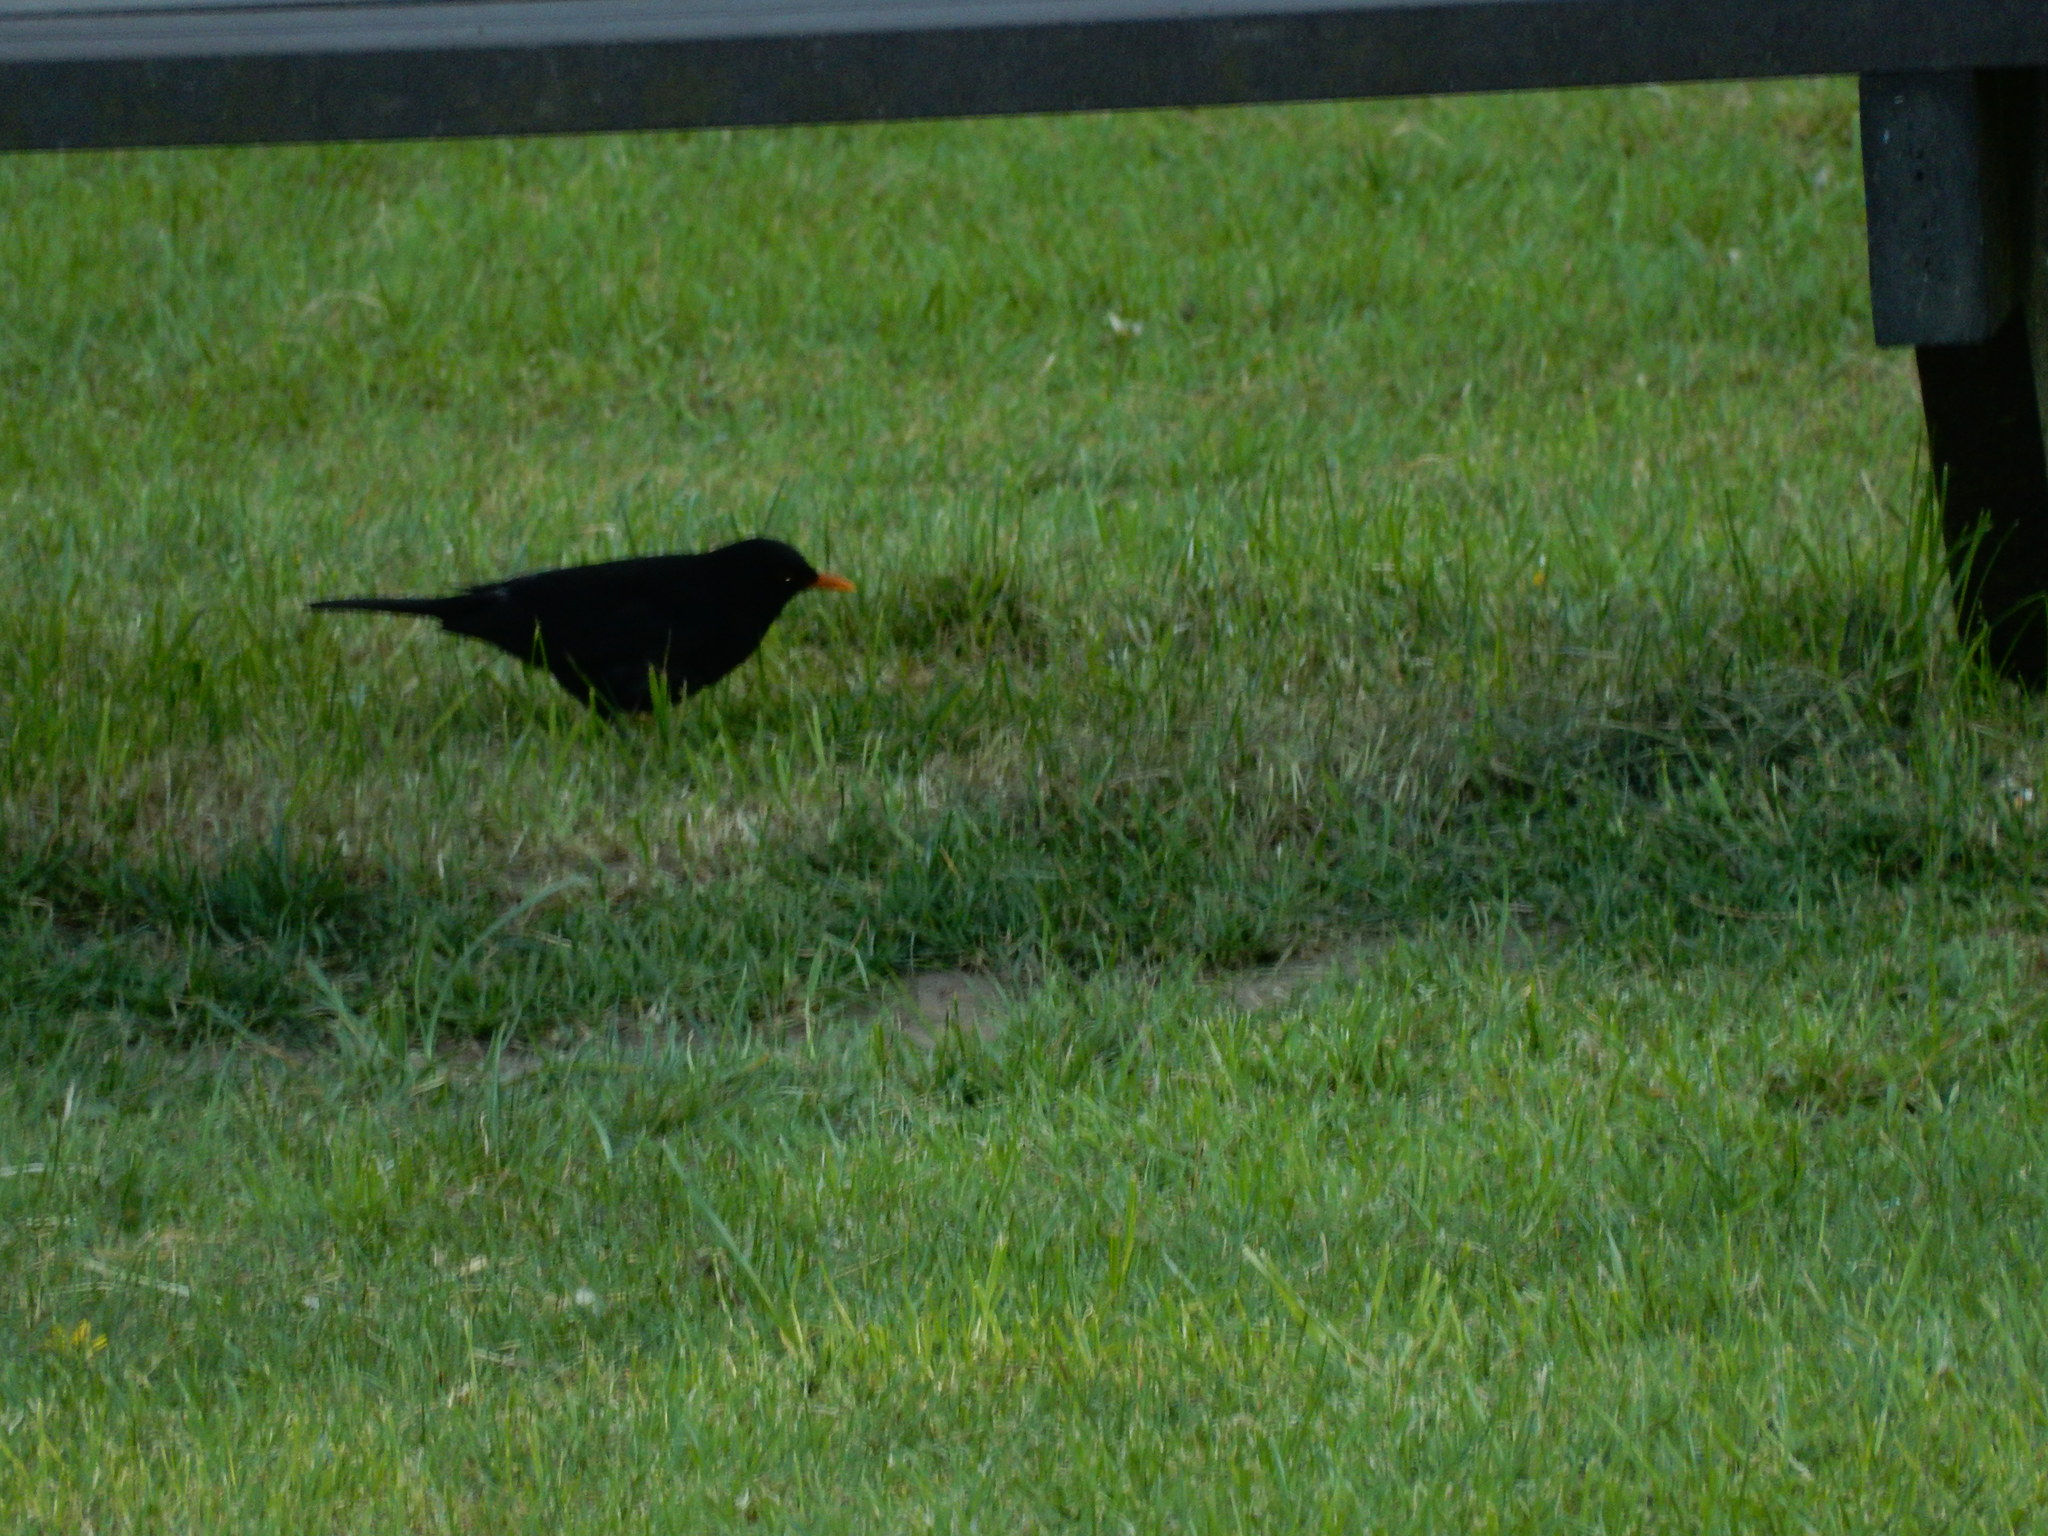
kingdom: Animalia
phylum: Chordata
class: Aves
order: Passeriformes
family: Turdidae
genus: Turdus
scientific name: Turdus merula
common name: Common blackbird
